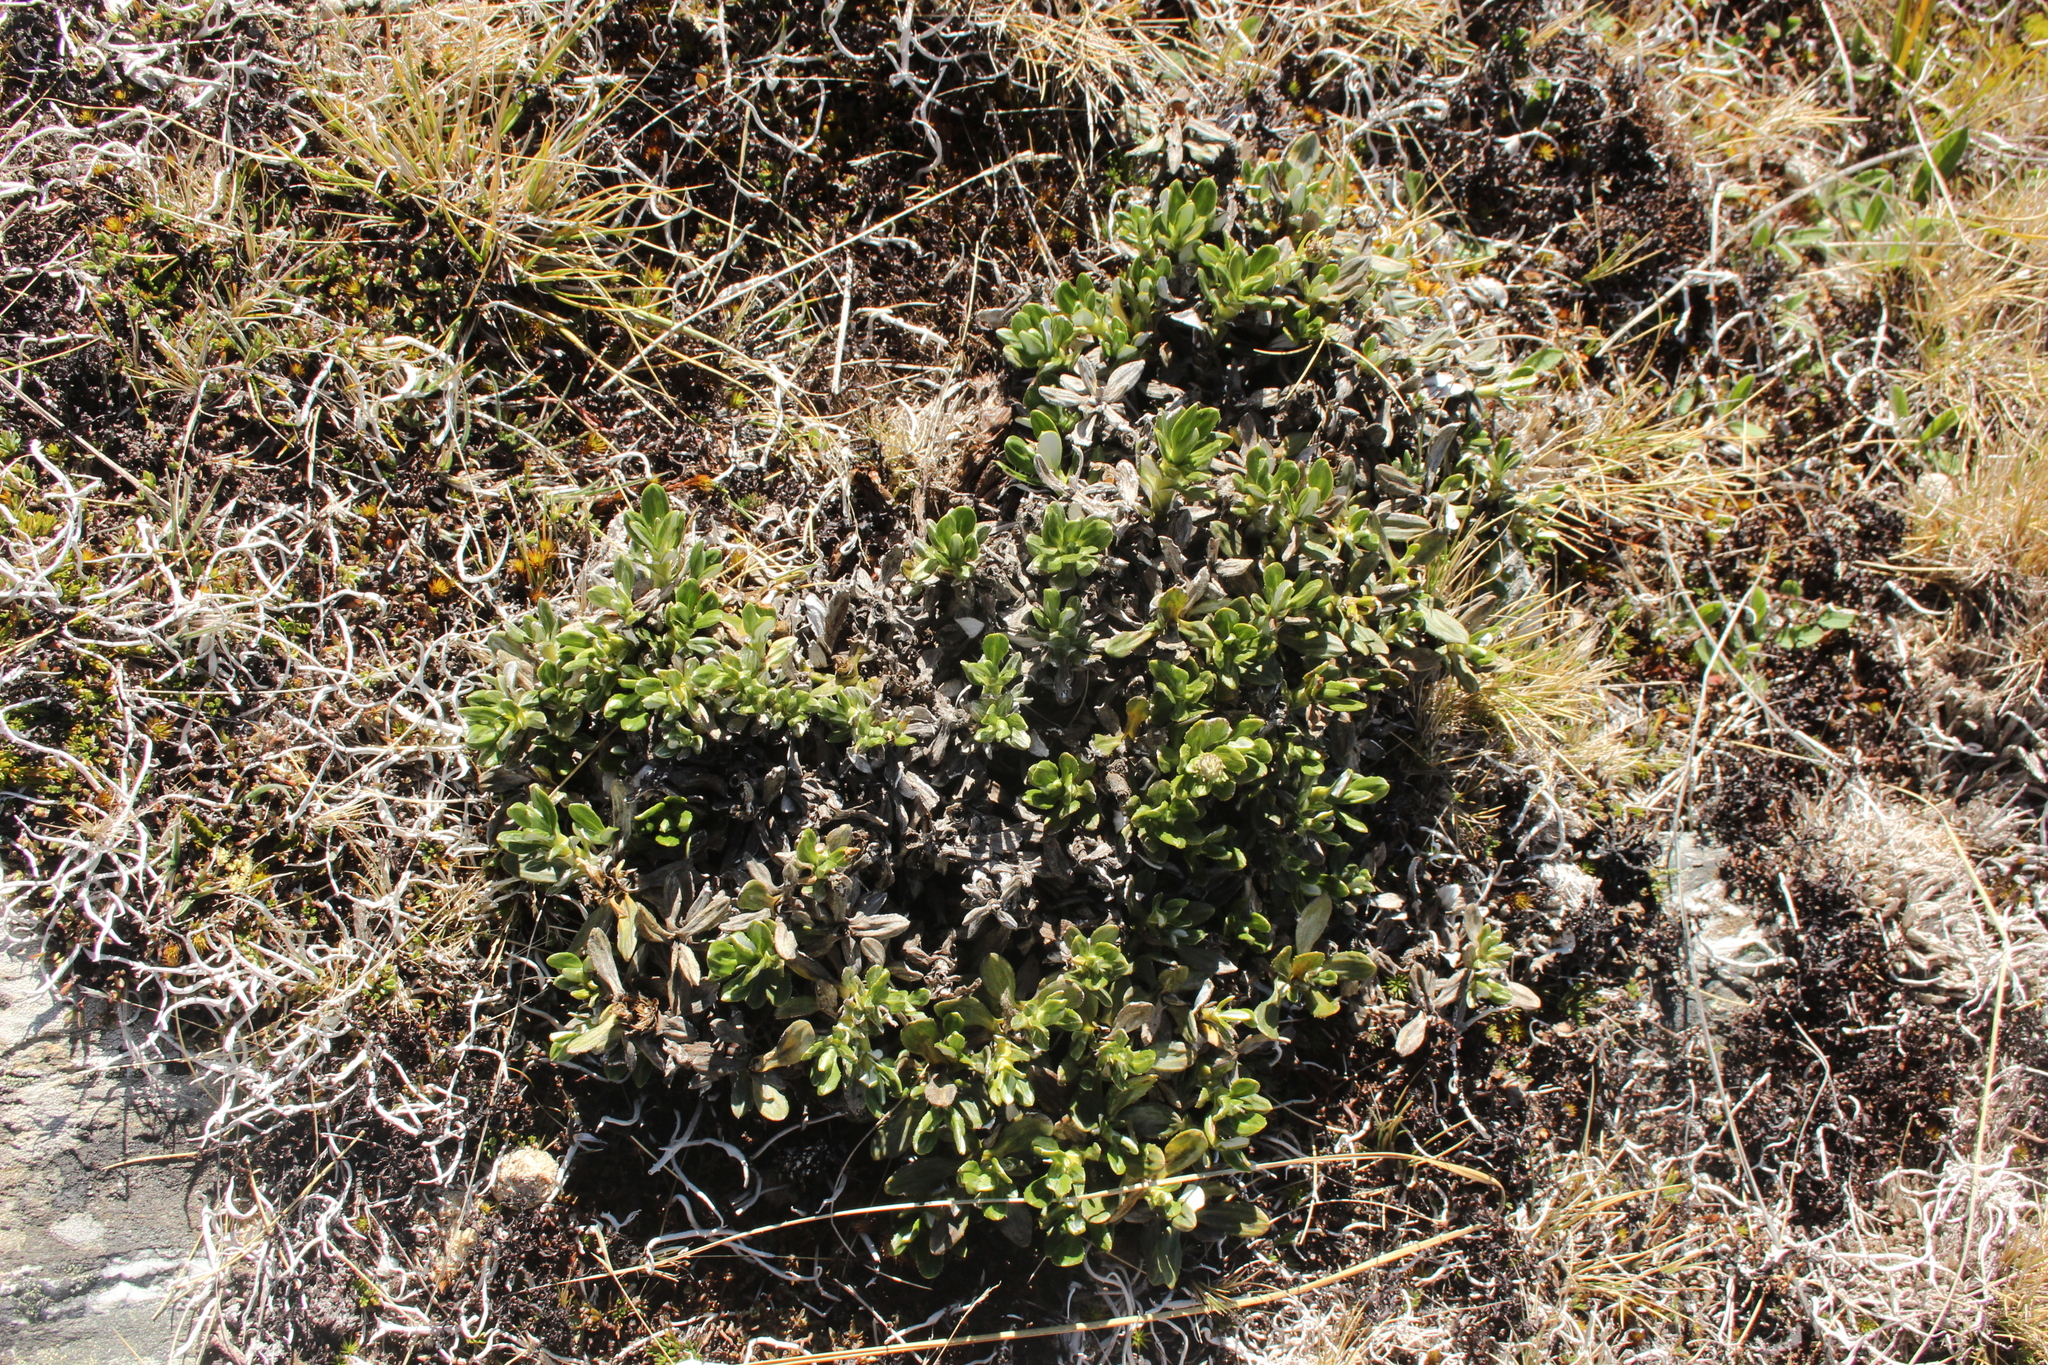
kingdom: Plantae
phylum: Tracheophyta
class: Magnoliopsida
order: Asterales
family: Asteraceae
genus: Celmisia
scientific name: Celmisia brevifolia
